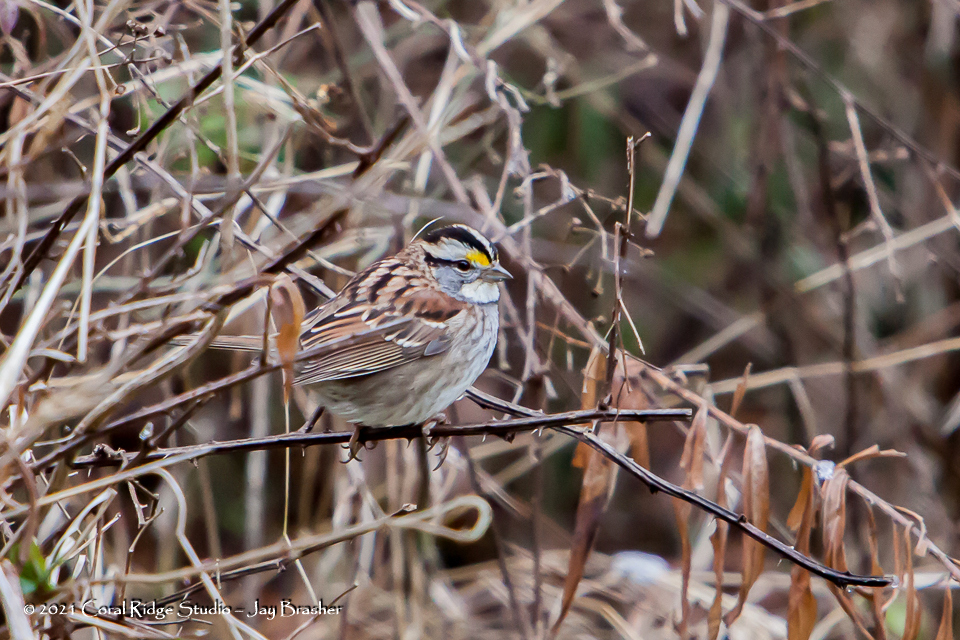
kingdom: Animalia
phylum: Chordata
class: Aves
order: Passeriformes
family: Passerellidae
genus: Zonotrichia
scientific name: Zonotrichia albicollis
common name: White-throated sparrow
